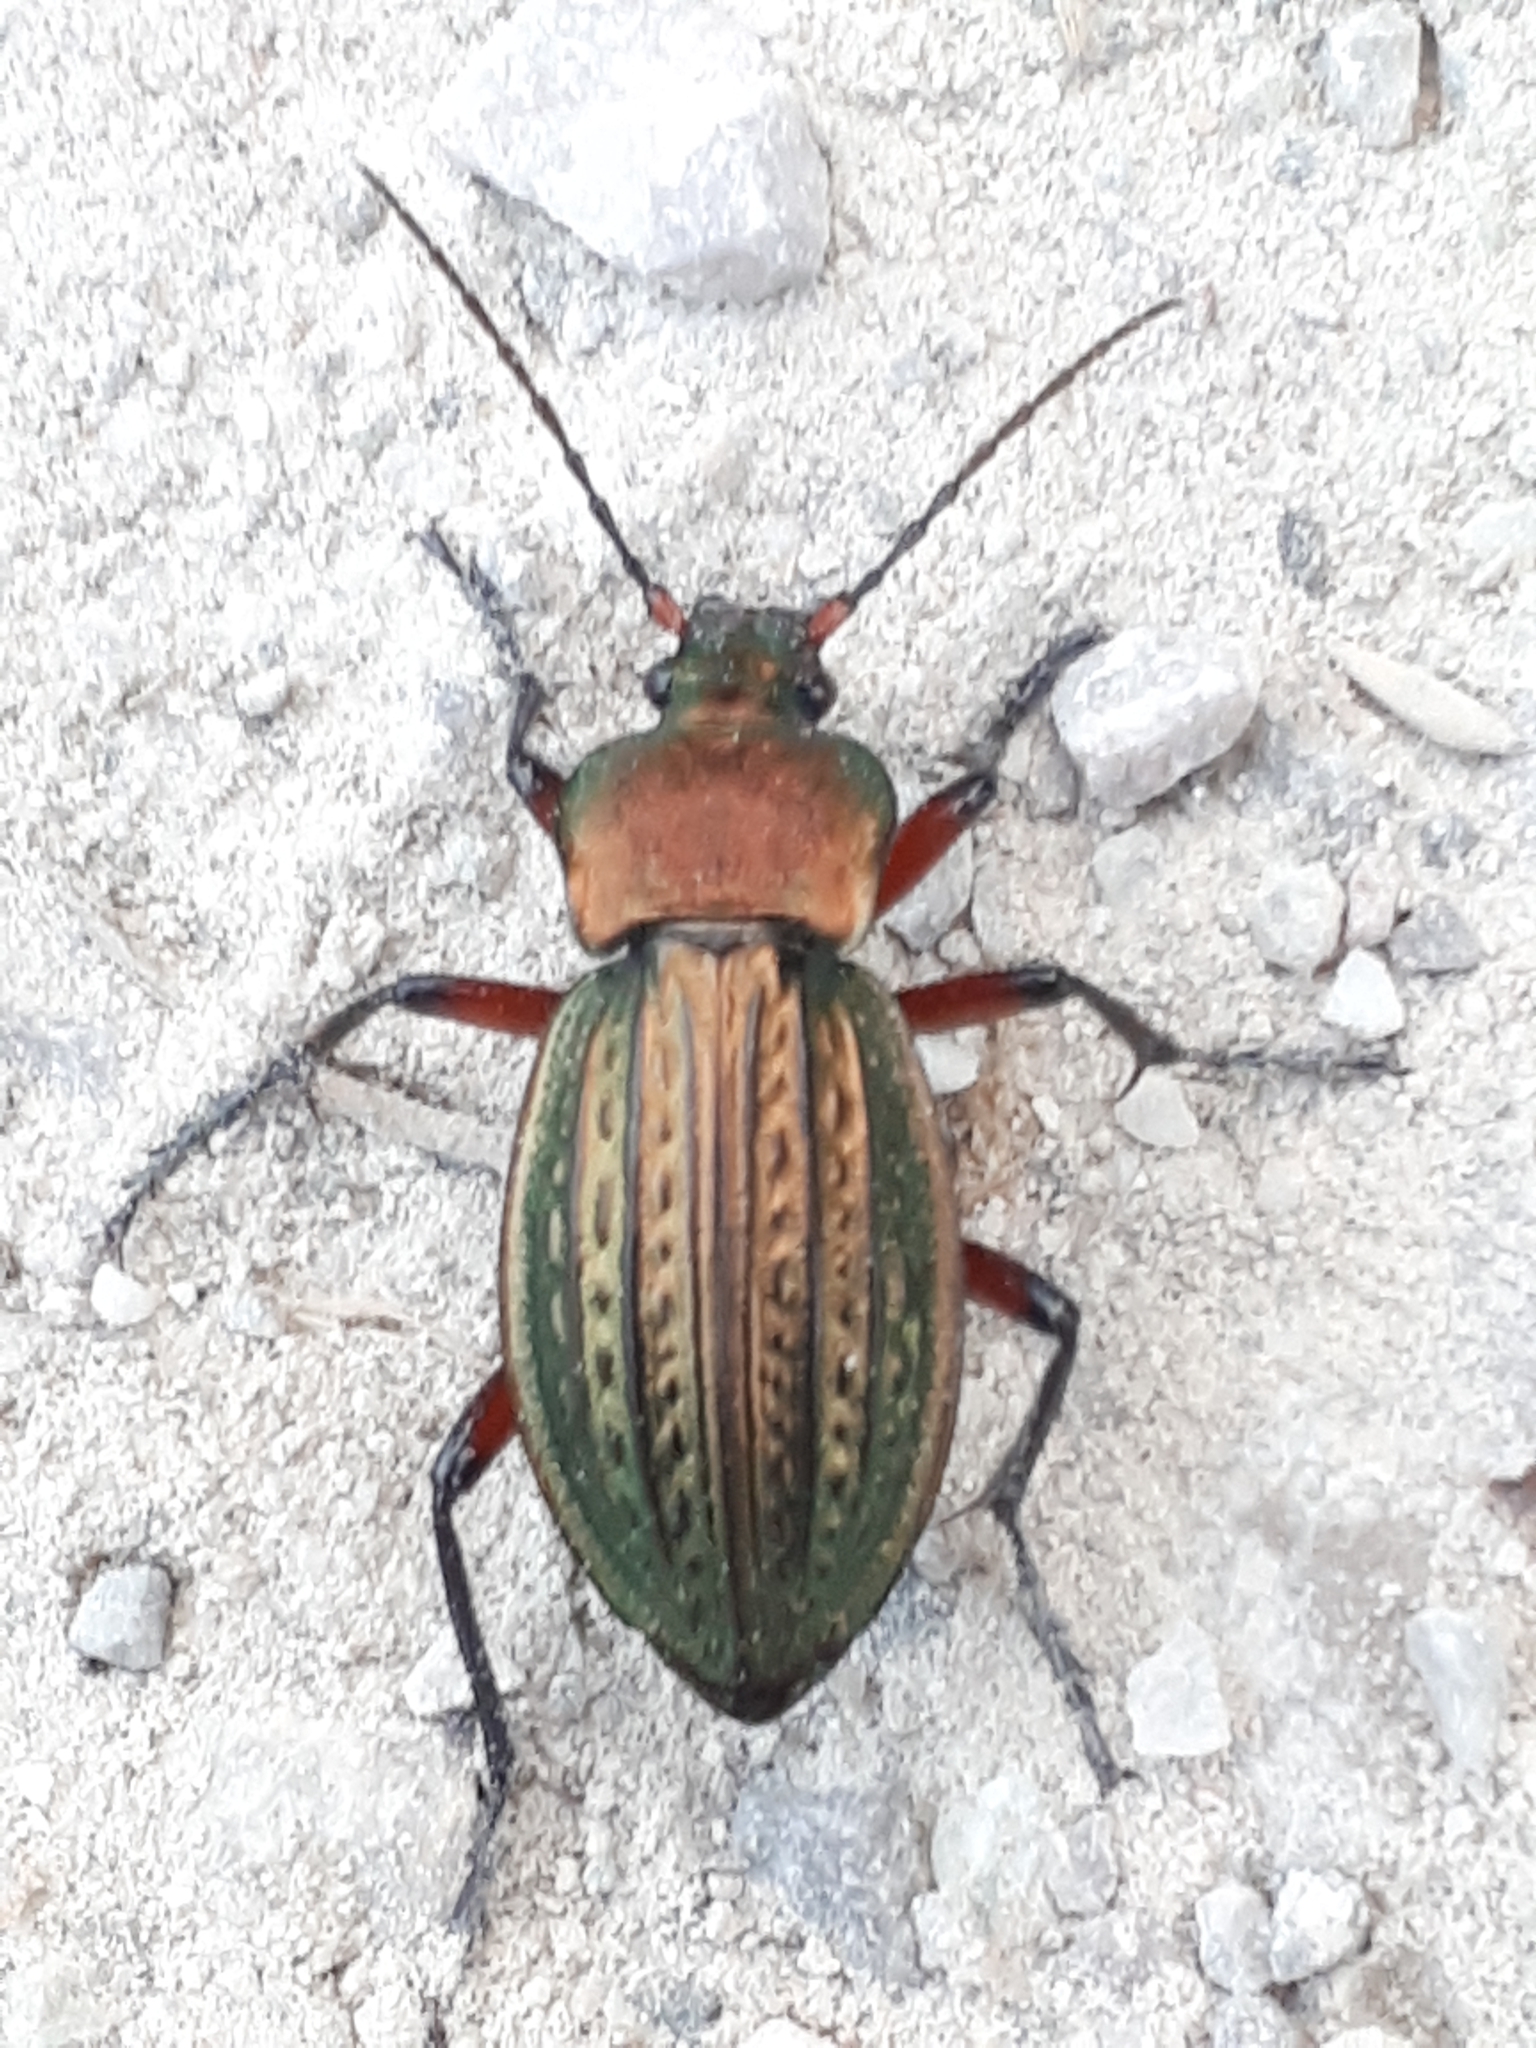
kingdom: Animalia
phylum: Arthropoda
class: Insecta
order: Coleoptera
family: Carabidae
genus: Carabus
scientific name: Carabus cancellatus
